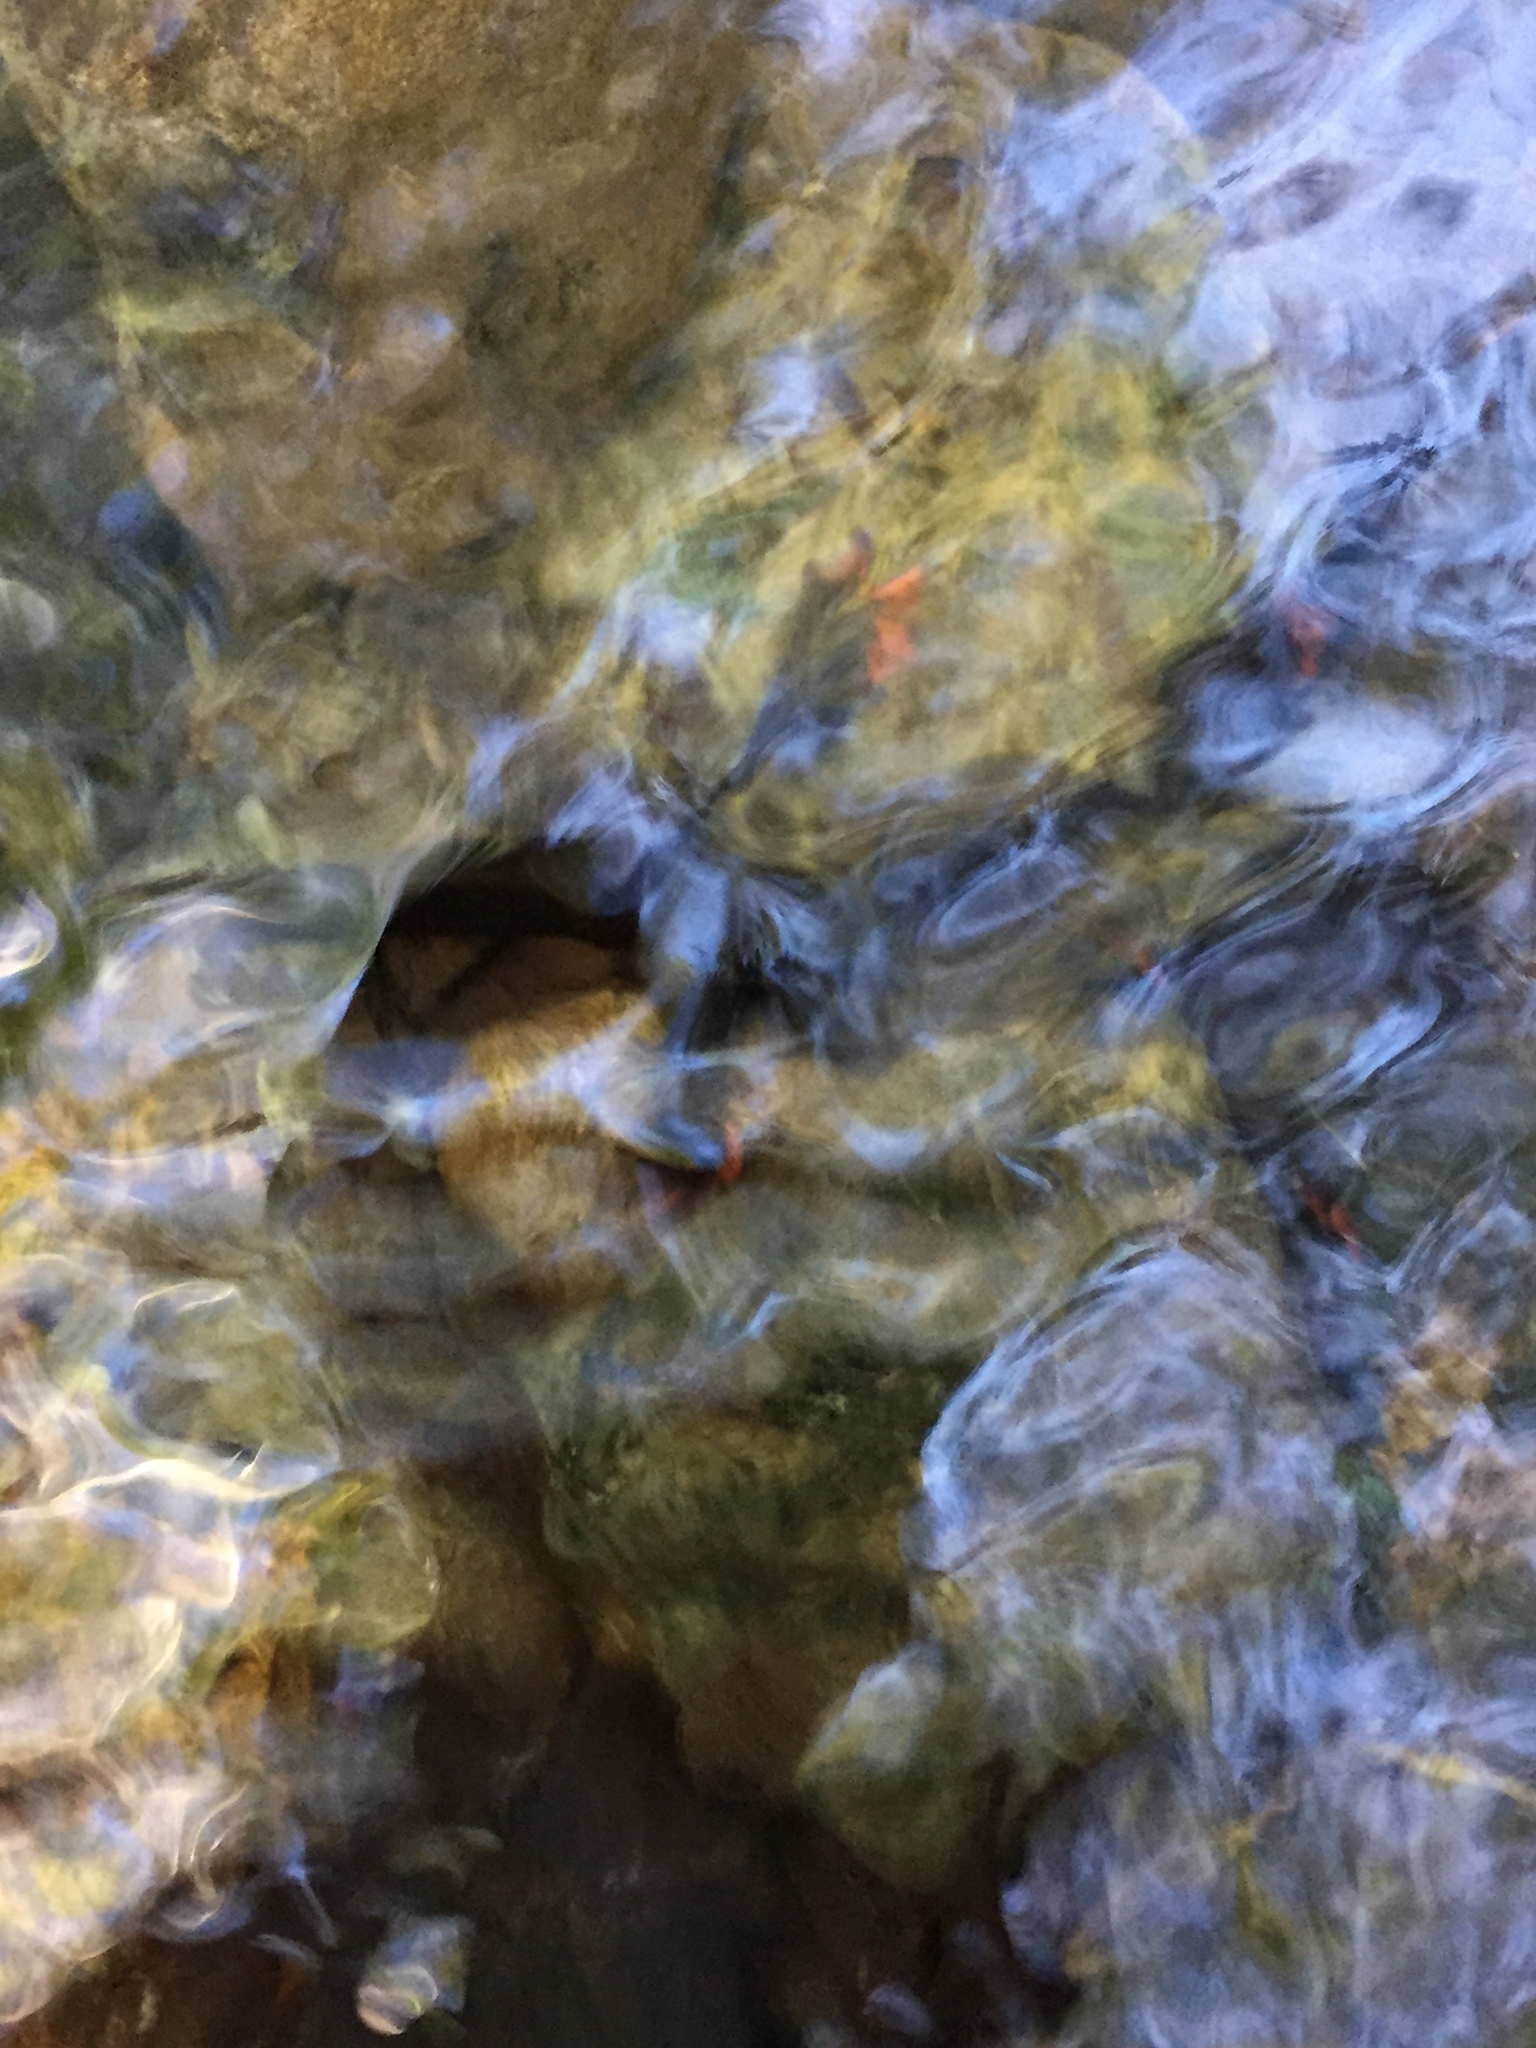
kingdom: Animalia
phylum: Chordata
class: Amphibia
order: Caudata
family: Salamandridae
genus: Taricha
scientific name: Taricha rivularis
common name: Red-bellied newt
